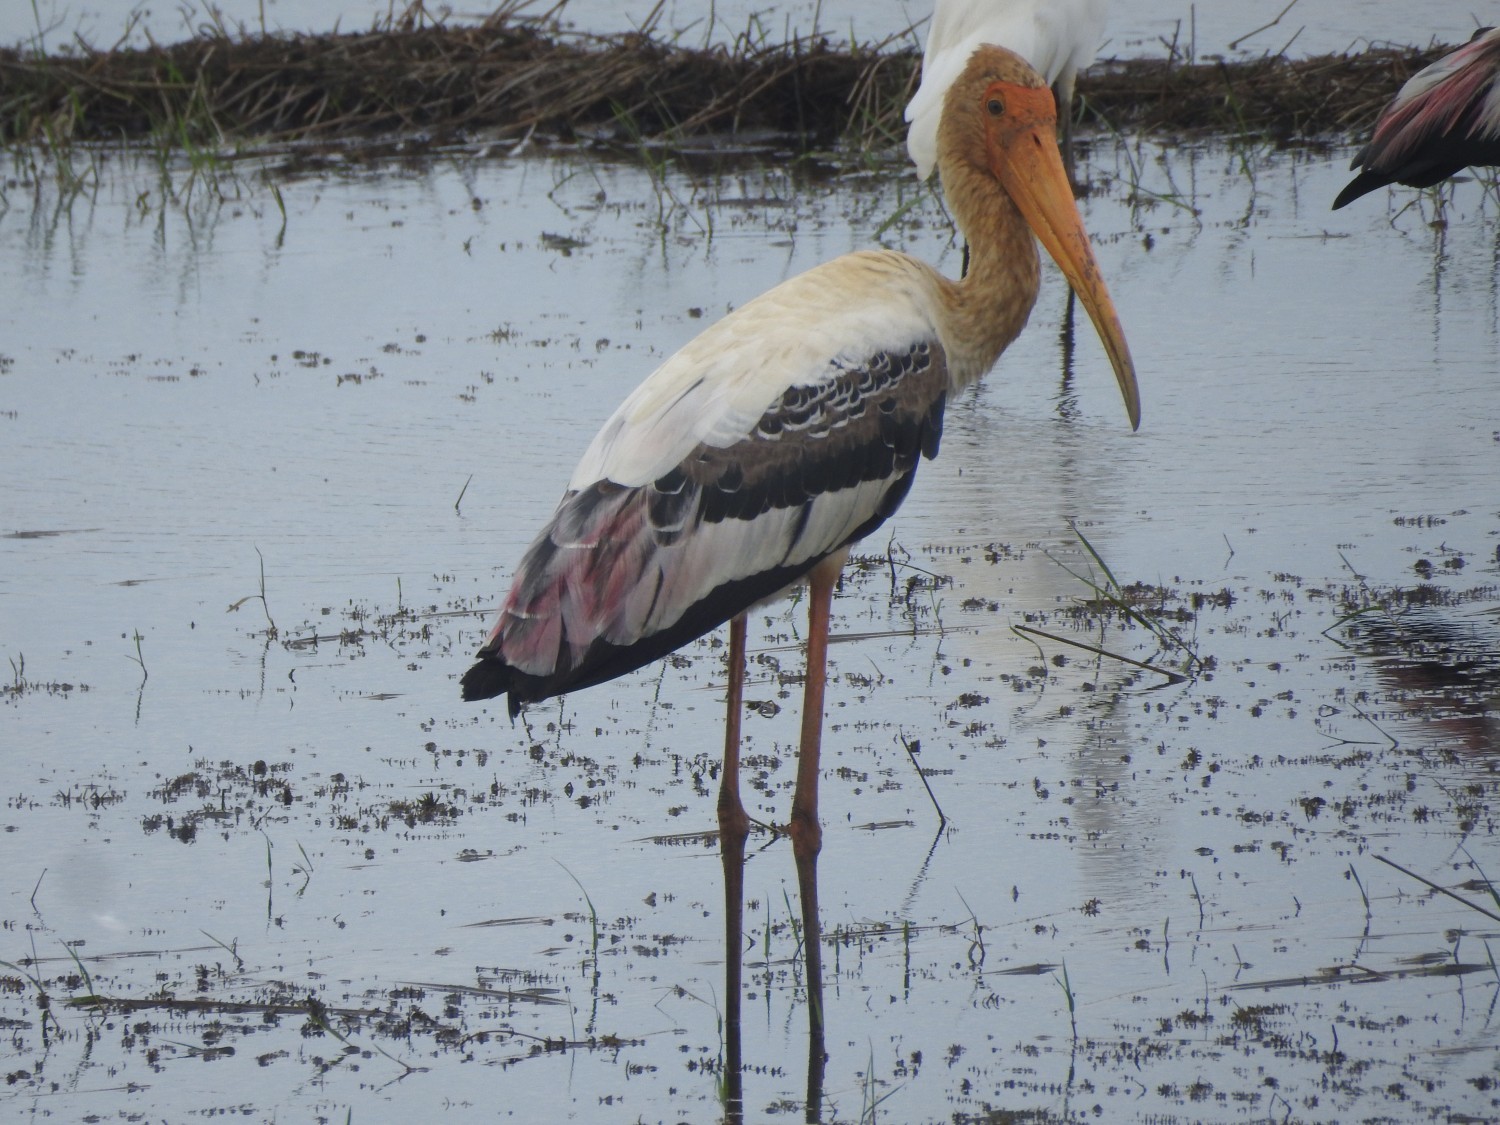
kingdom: Animalia
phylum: Chordata
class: Aves
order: Ciconiiformes
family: Ciconiidae
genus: Mycteria
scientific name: Mycteria leucocephala
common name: Painted stork
